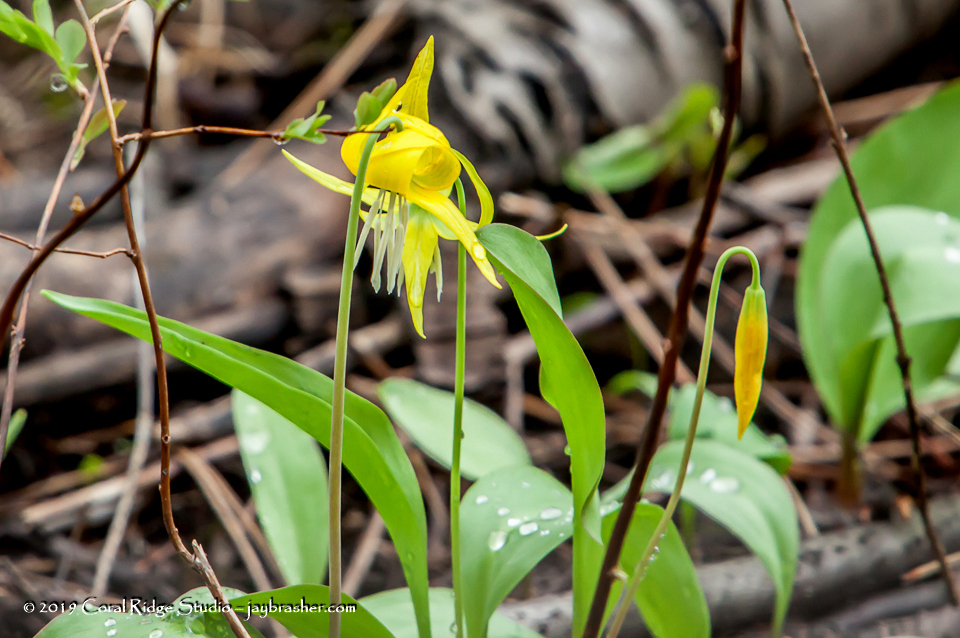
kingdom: Plantae
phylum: Tracheophyta
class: Liliopsida
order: Liliales
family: Liliaceae
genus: Erythronium
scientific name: Erythronium grandiflorum
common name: Avalanche-lily
